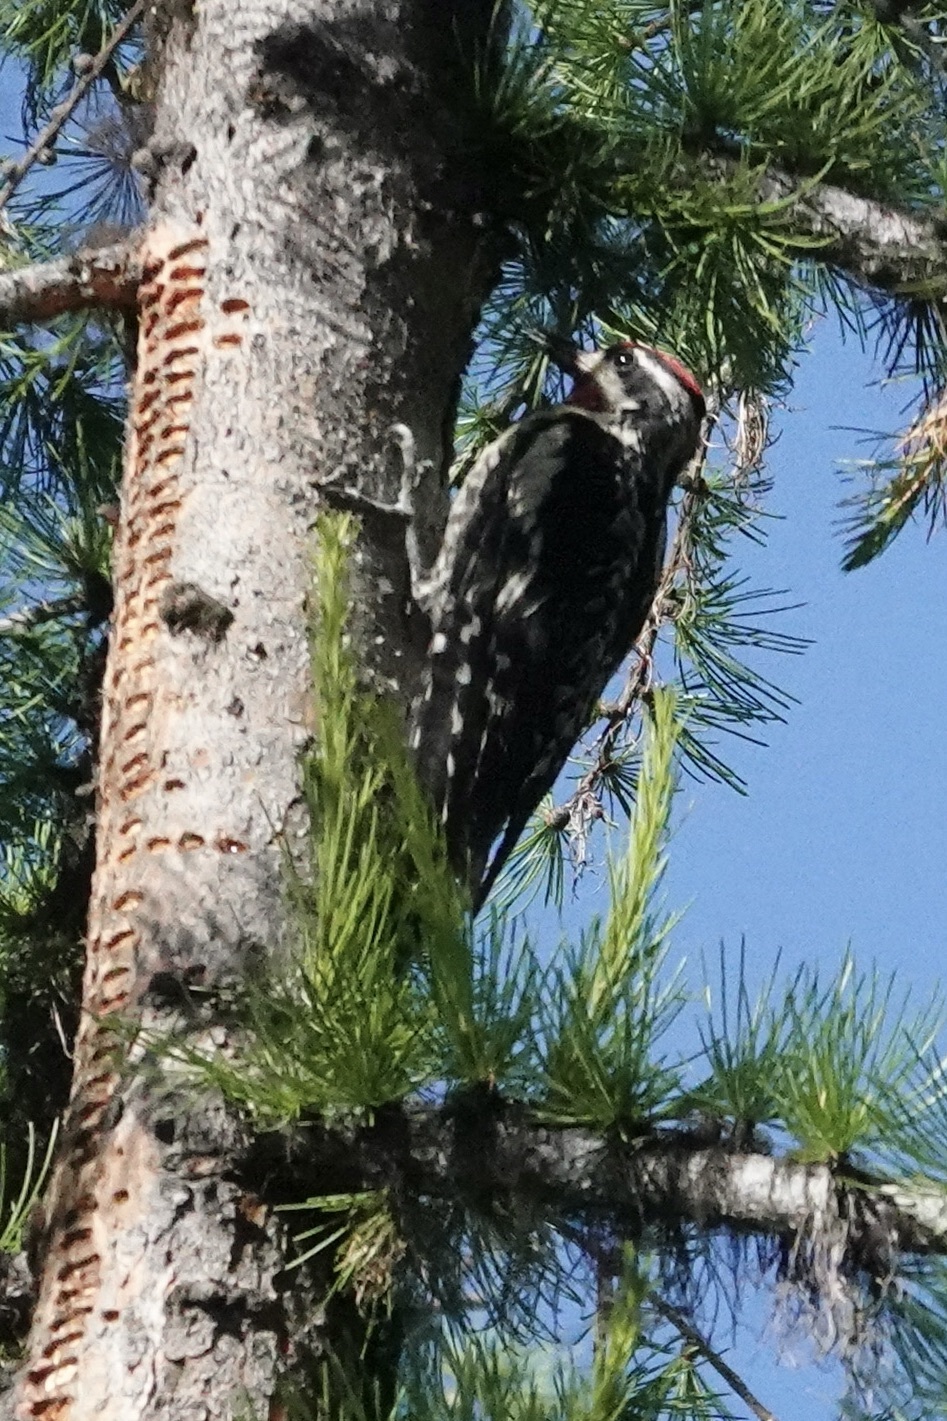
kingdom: Animalia
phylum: Chordata
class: Aves
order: Piciformes
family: Picidae
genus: Leuconotopicus
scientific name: Leuconotopicus villosus
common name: Hairy woodpecker
